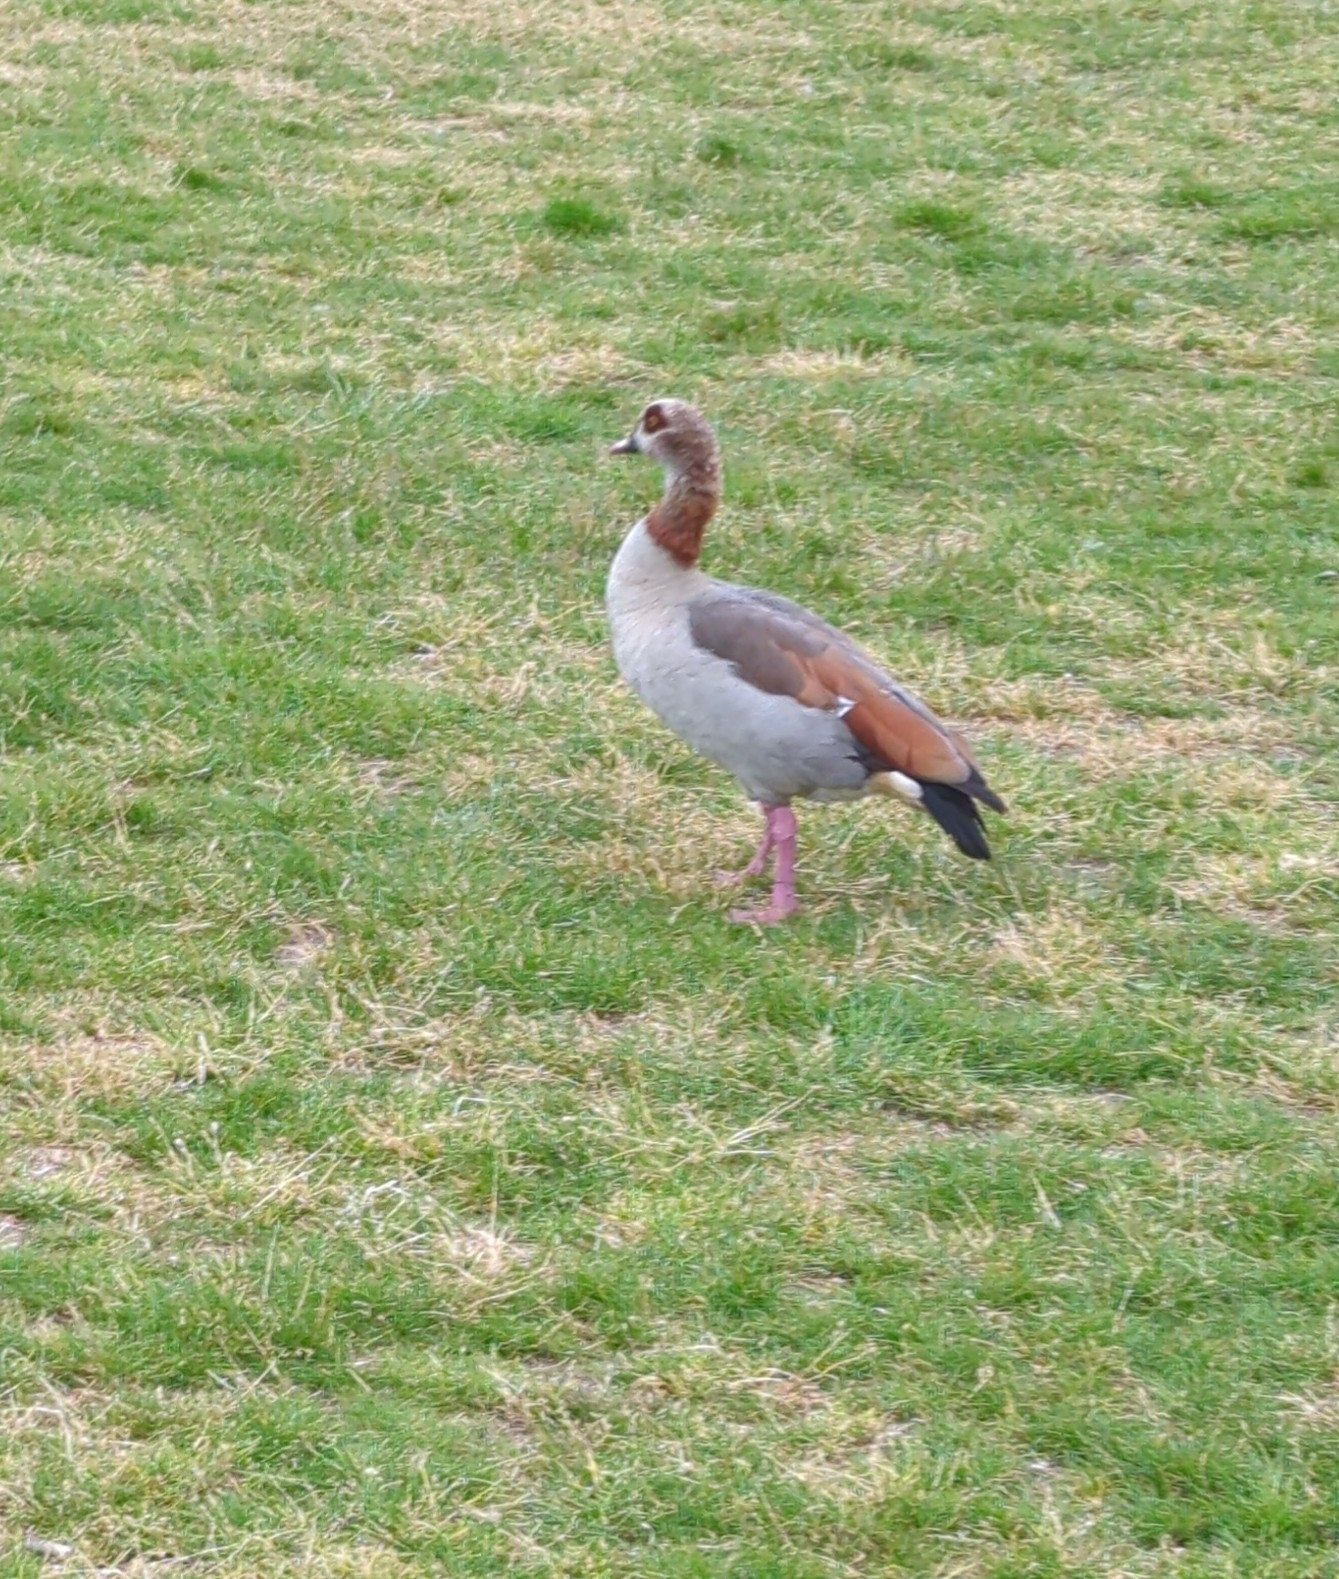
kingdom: Animalia
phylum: Chordata
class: Aves
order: Anseriformes
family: Anatidae
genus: Alopochen
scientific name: Alopochen aegyptiaca
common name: Egyptian goose
